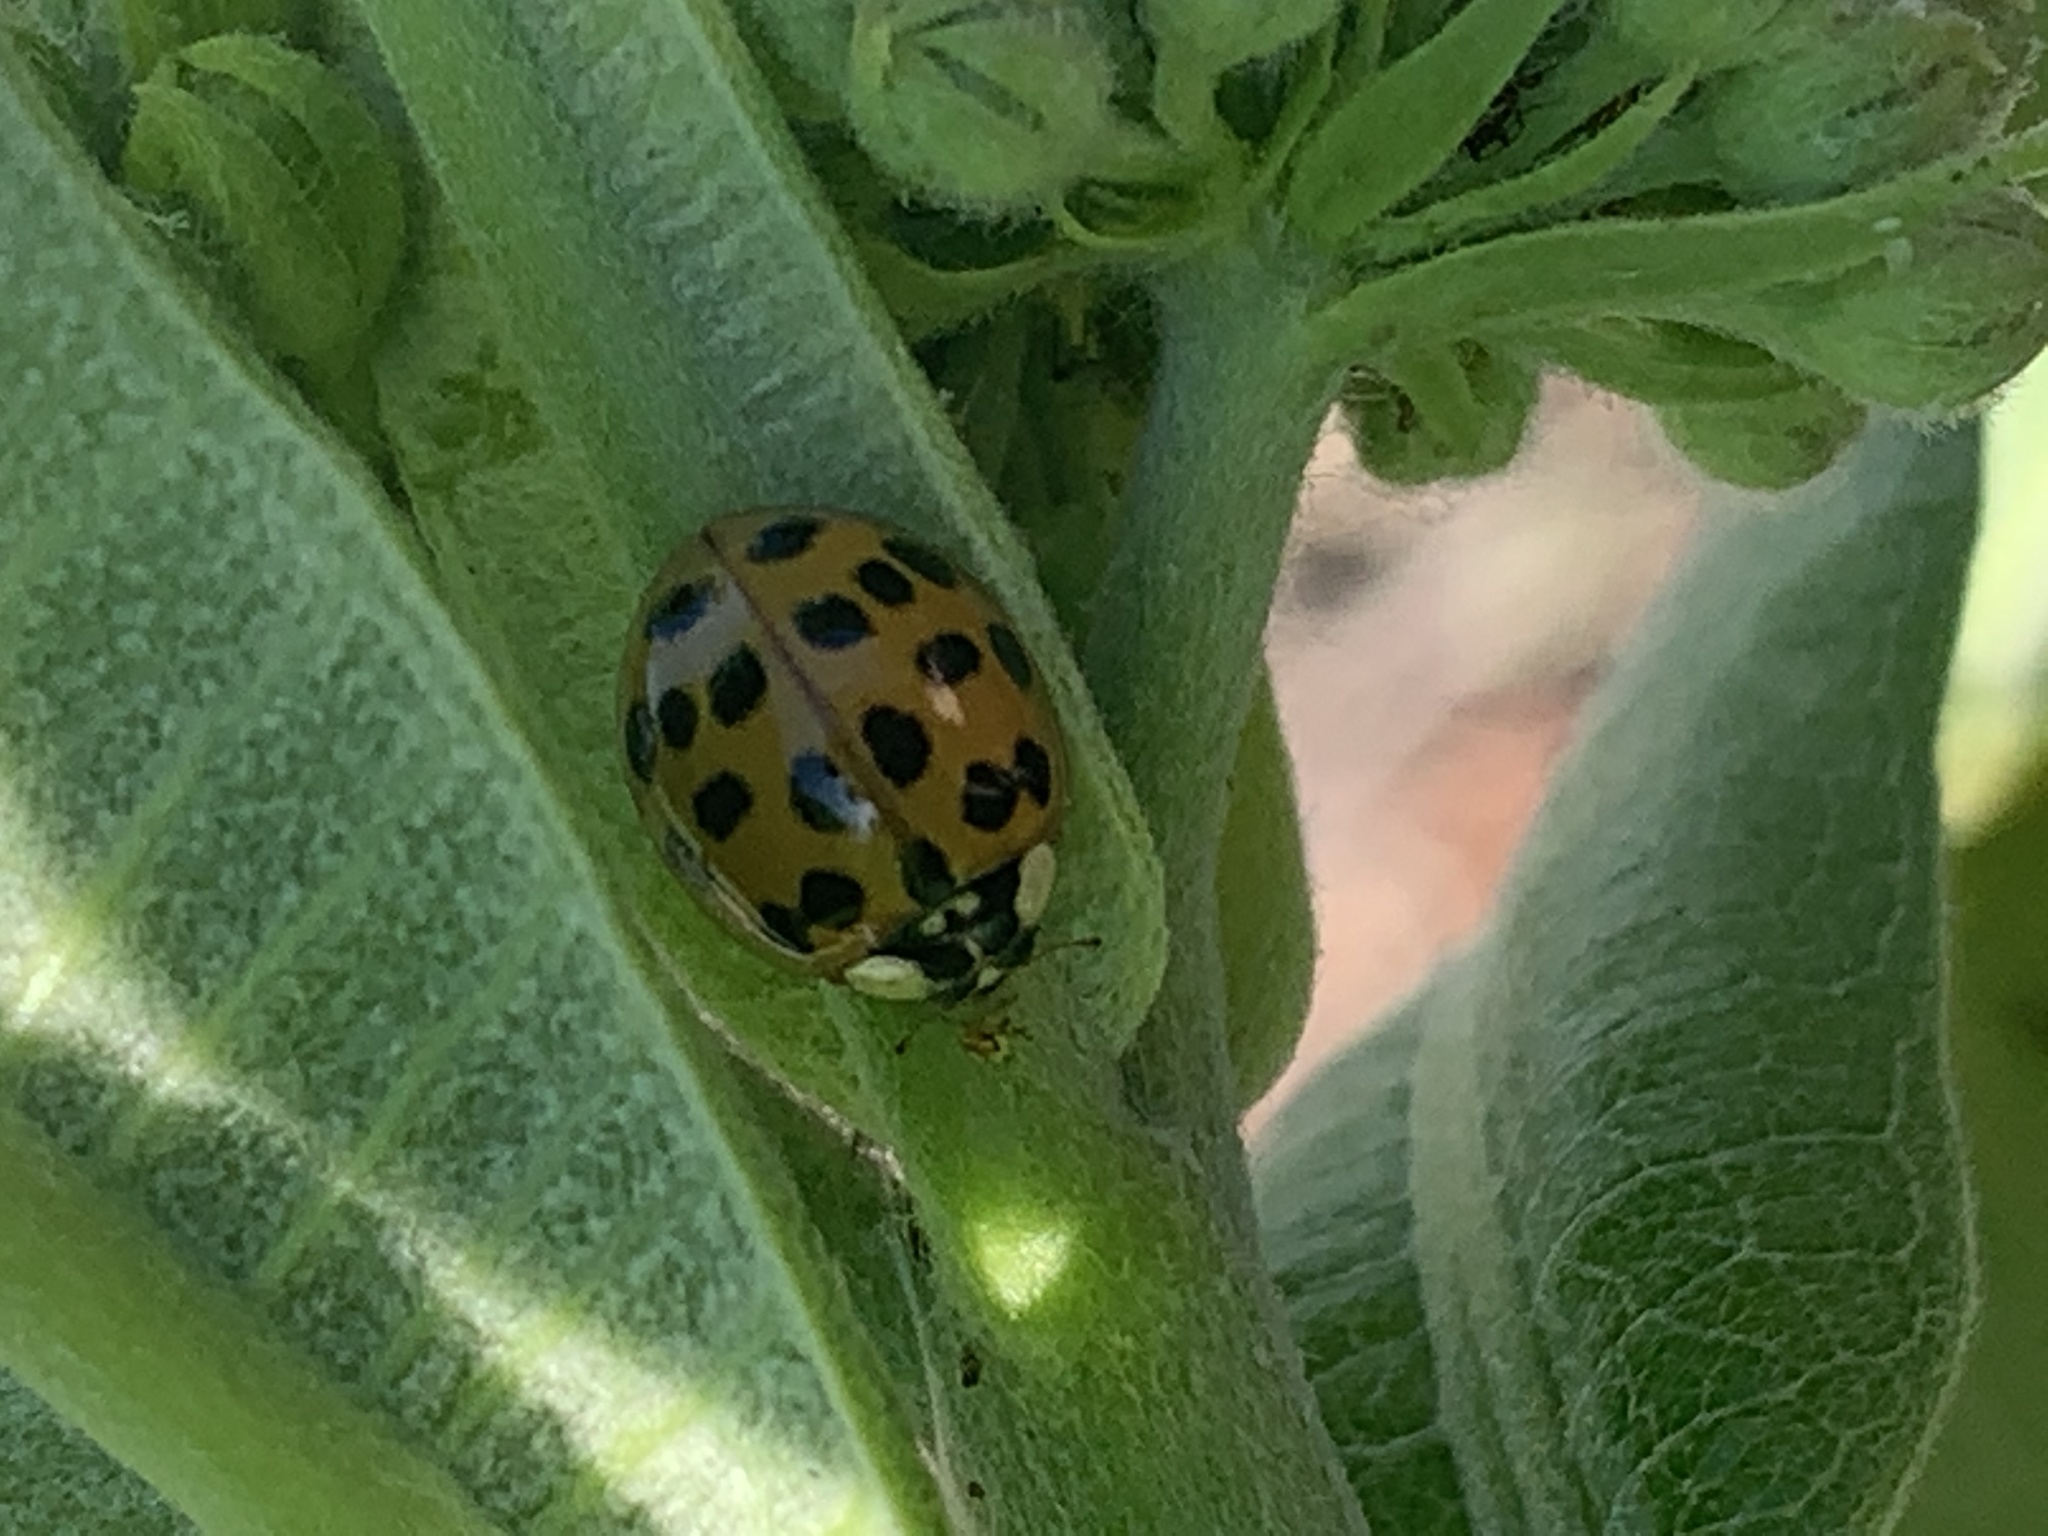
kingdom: Animalia
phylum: Arthropoda
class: Insecta
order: Coleoptera
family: Coccinellidae
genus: Harmonia
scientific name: Harmonia axyridis
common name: Harlequin ladybird
